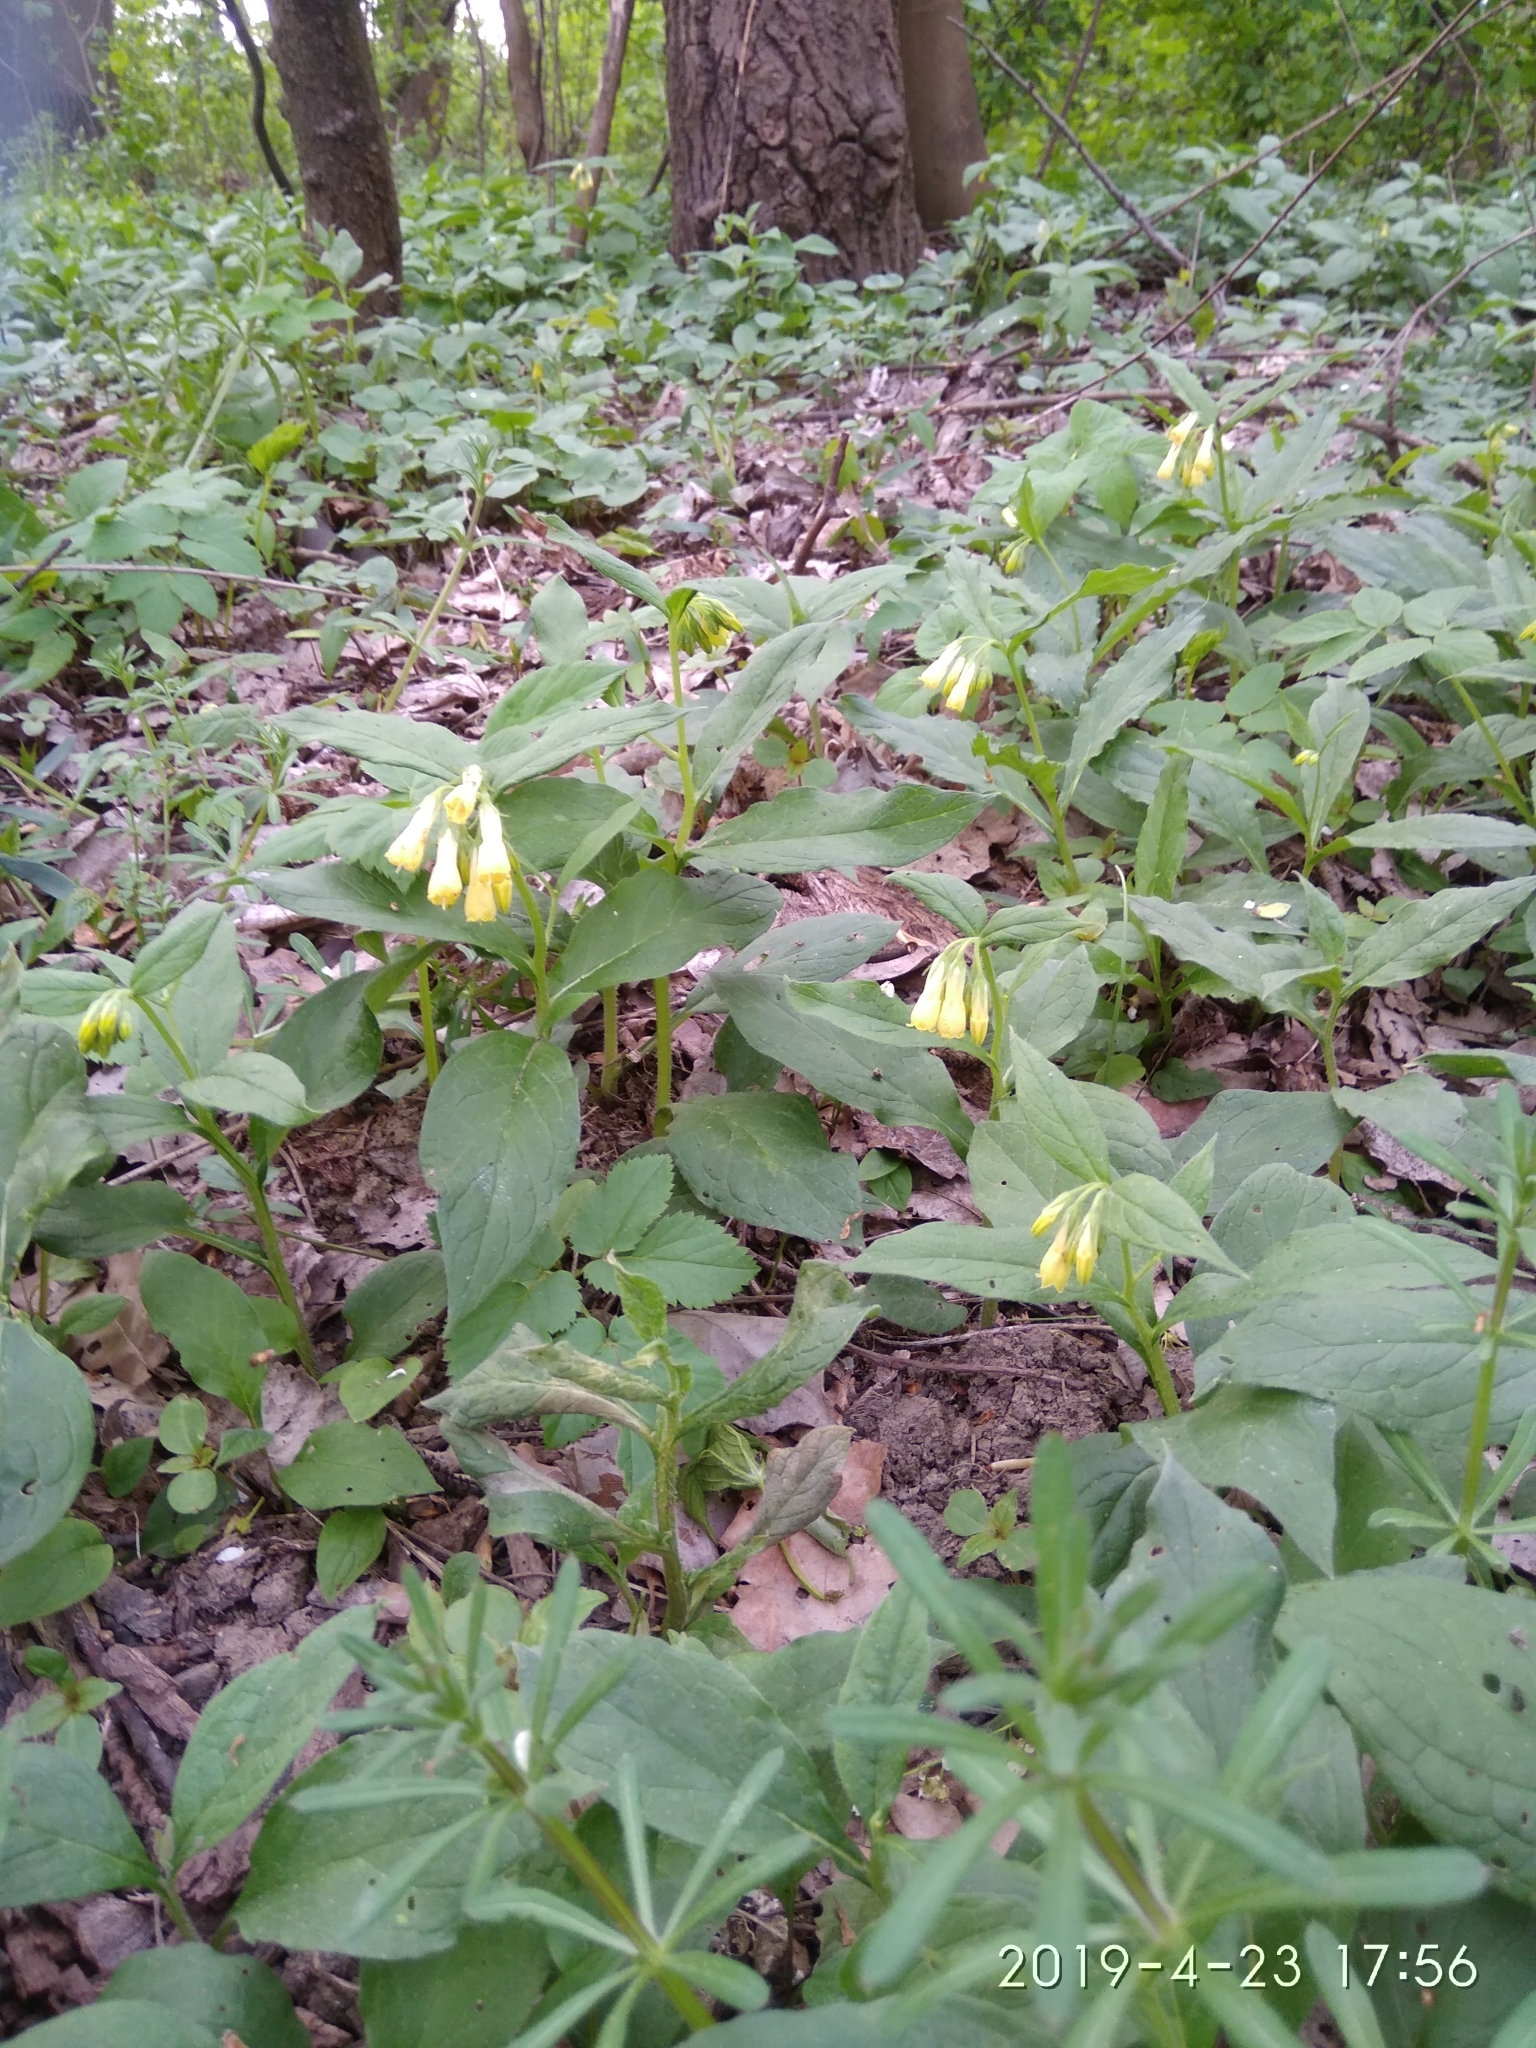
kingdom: Plantae
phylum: Tracheophyta
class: Magnoliopsida
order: Boraginales
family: Boraginaceae
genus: Symphytum
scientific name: Symphytum tuberosum
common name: Tuberous comfrey
